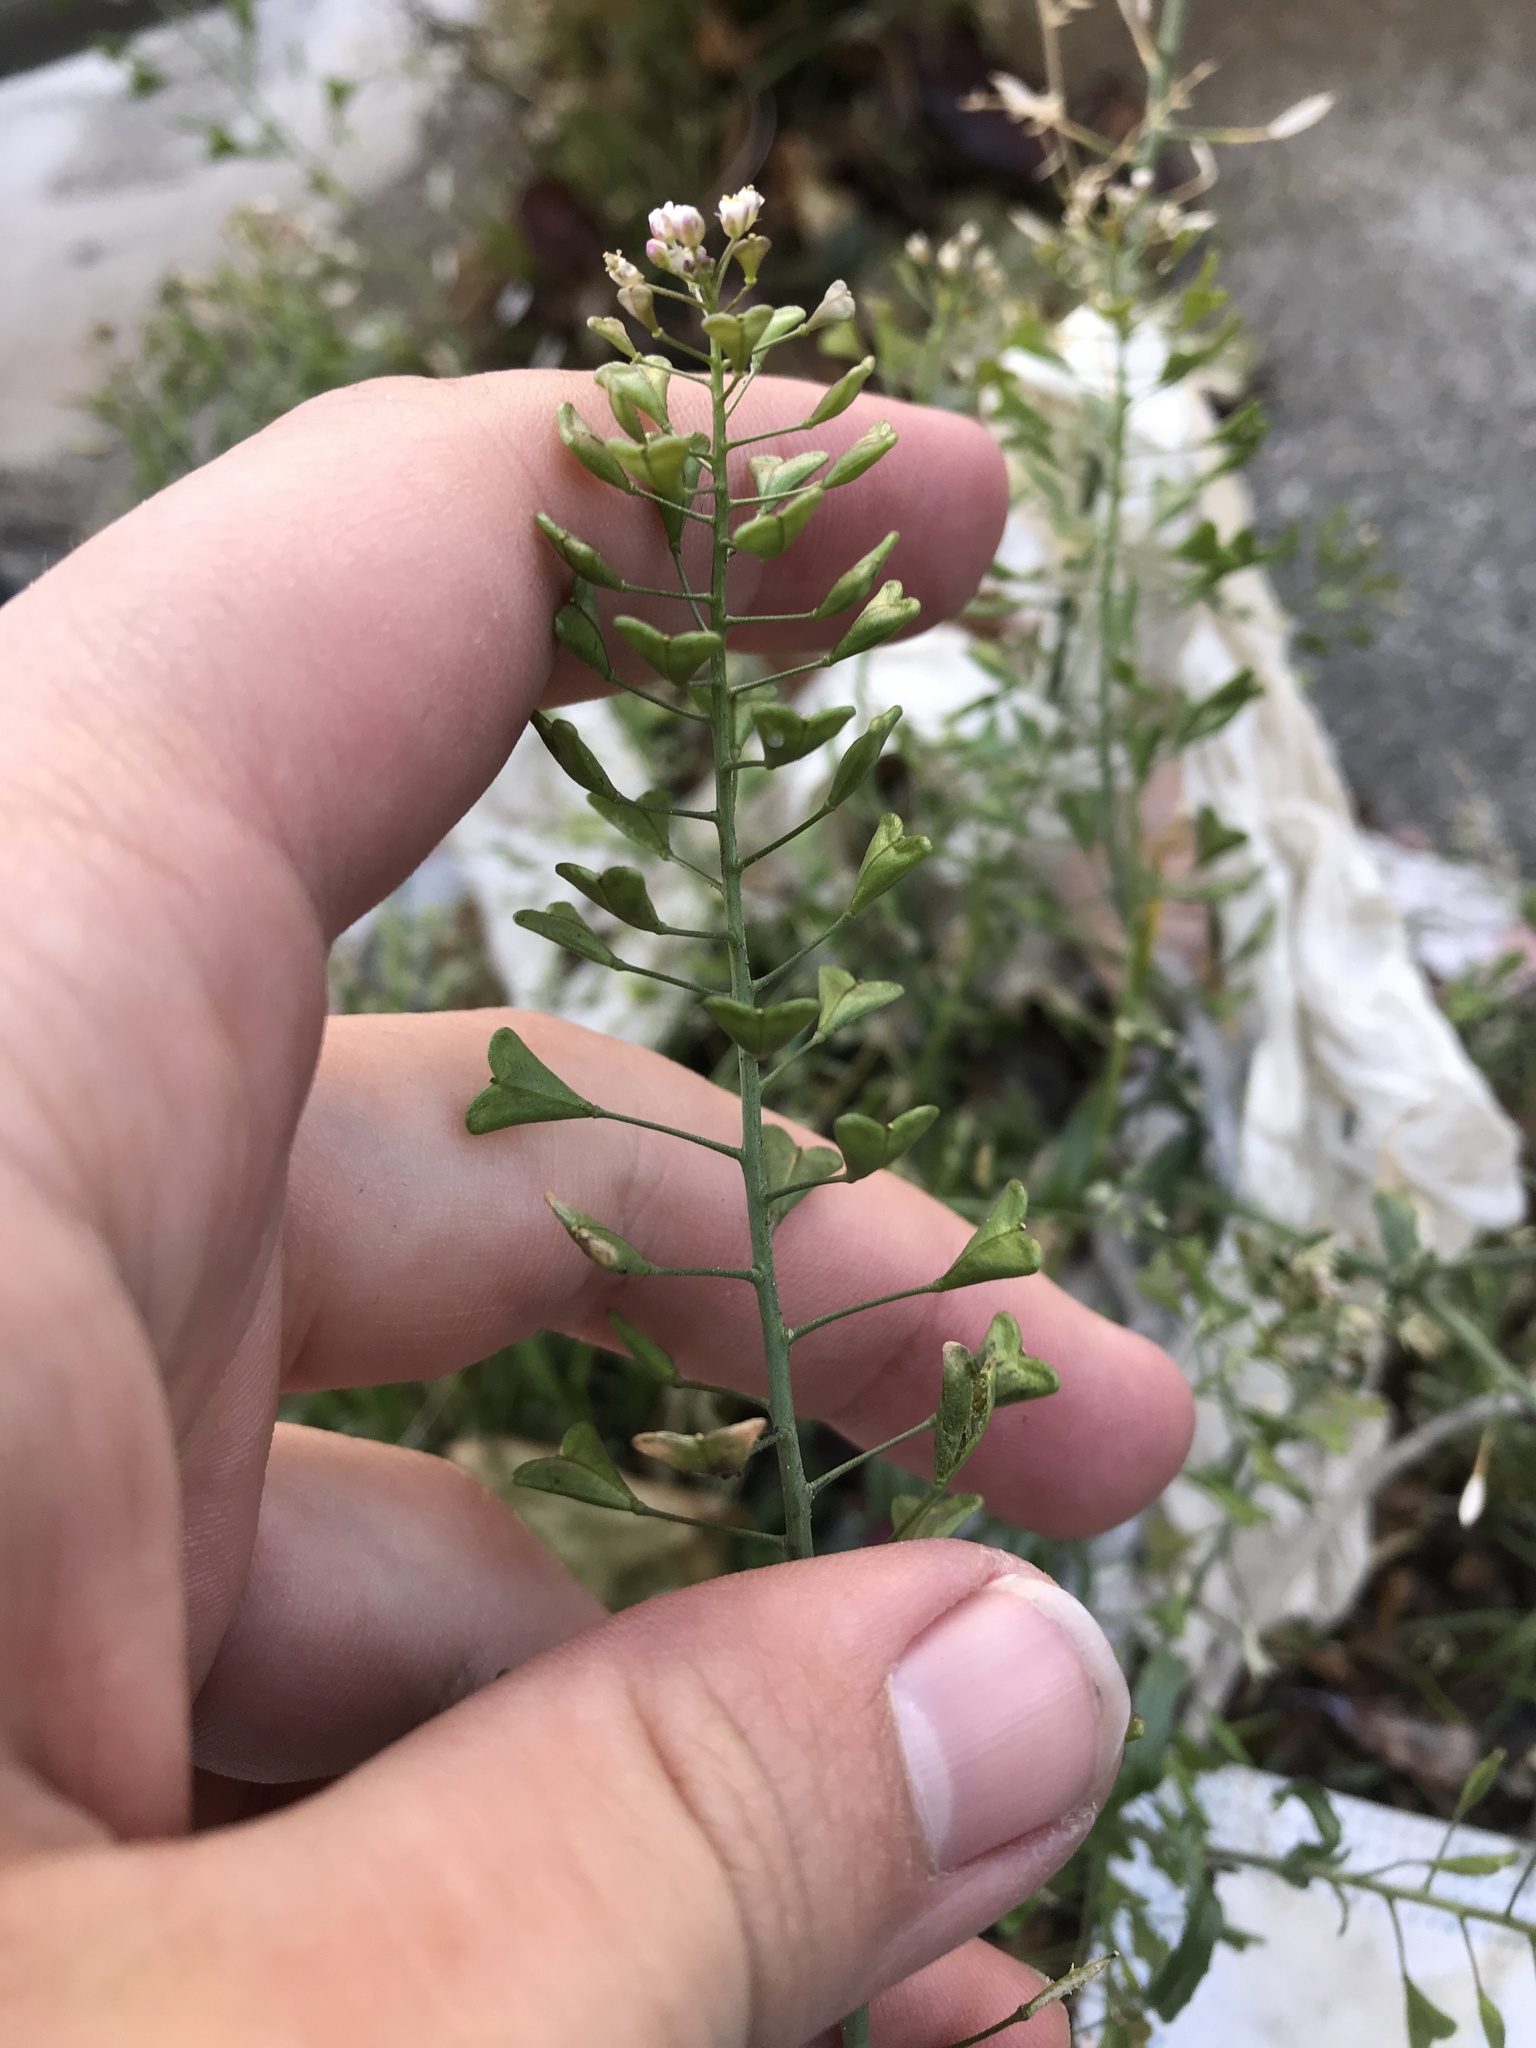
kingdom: Plantae
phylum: Tracheophyta
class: Magnoliopsida
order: Brassicales
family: Brassicaceae
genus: Capsella
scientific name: Capsella bursa-pastoris
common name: Shepherd's purse
